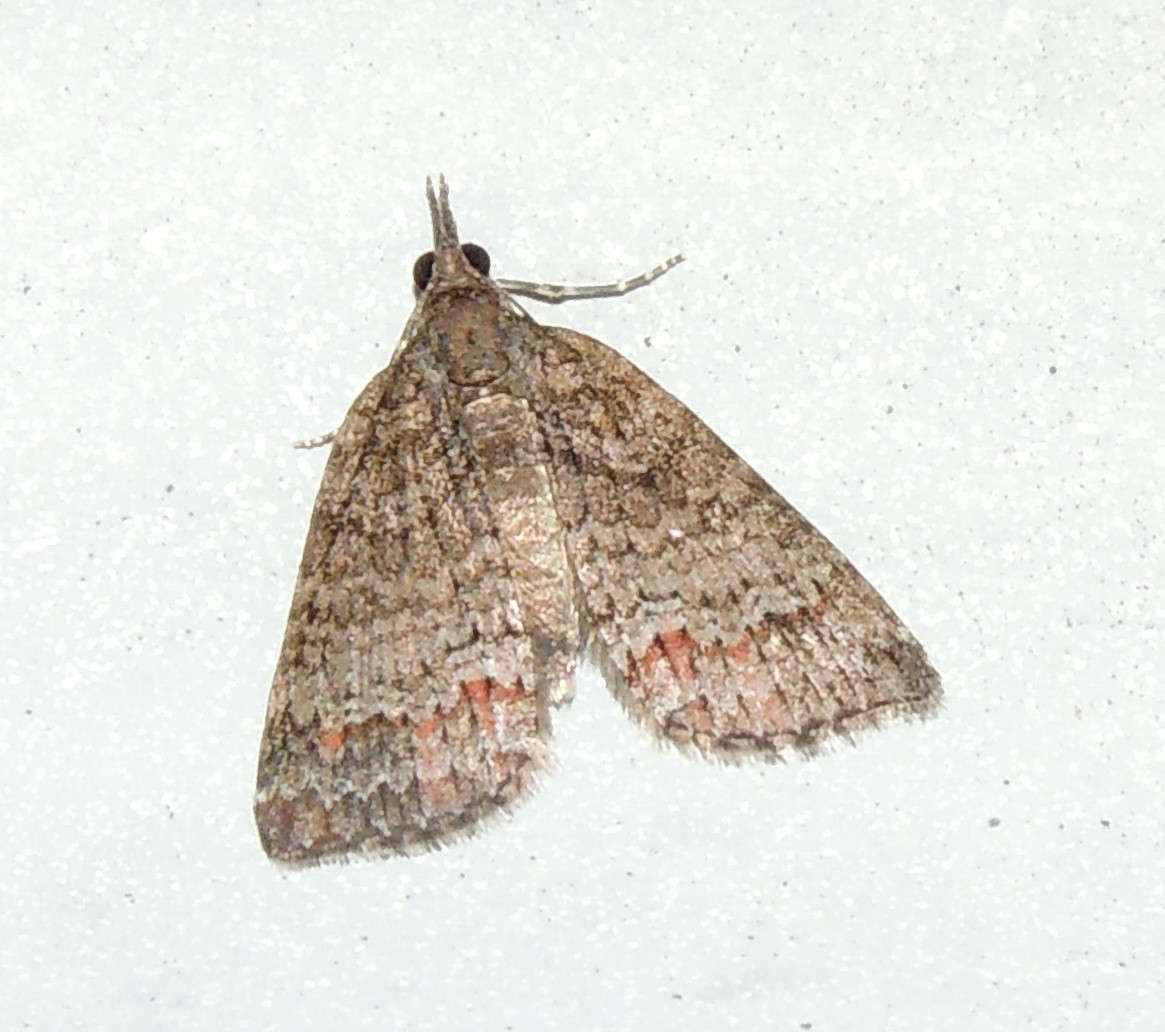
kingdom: Animalia
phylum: Arthropoda
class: Insecta
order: Lepidoptera
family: Geometridae
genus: Microdes
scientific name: Microdes squamulata
